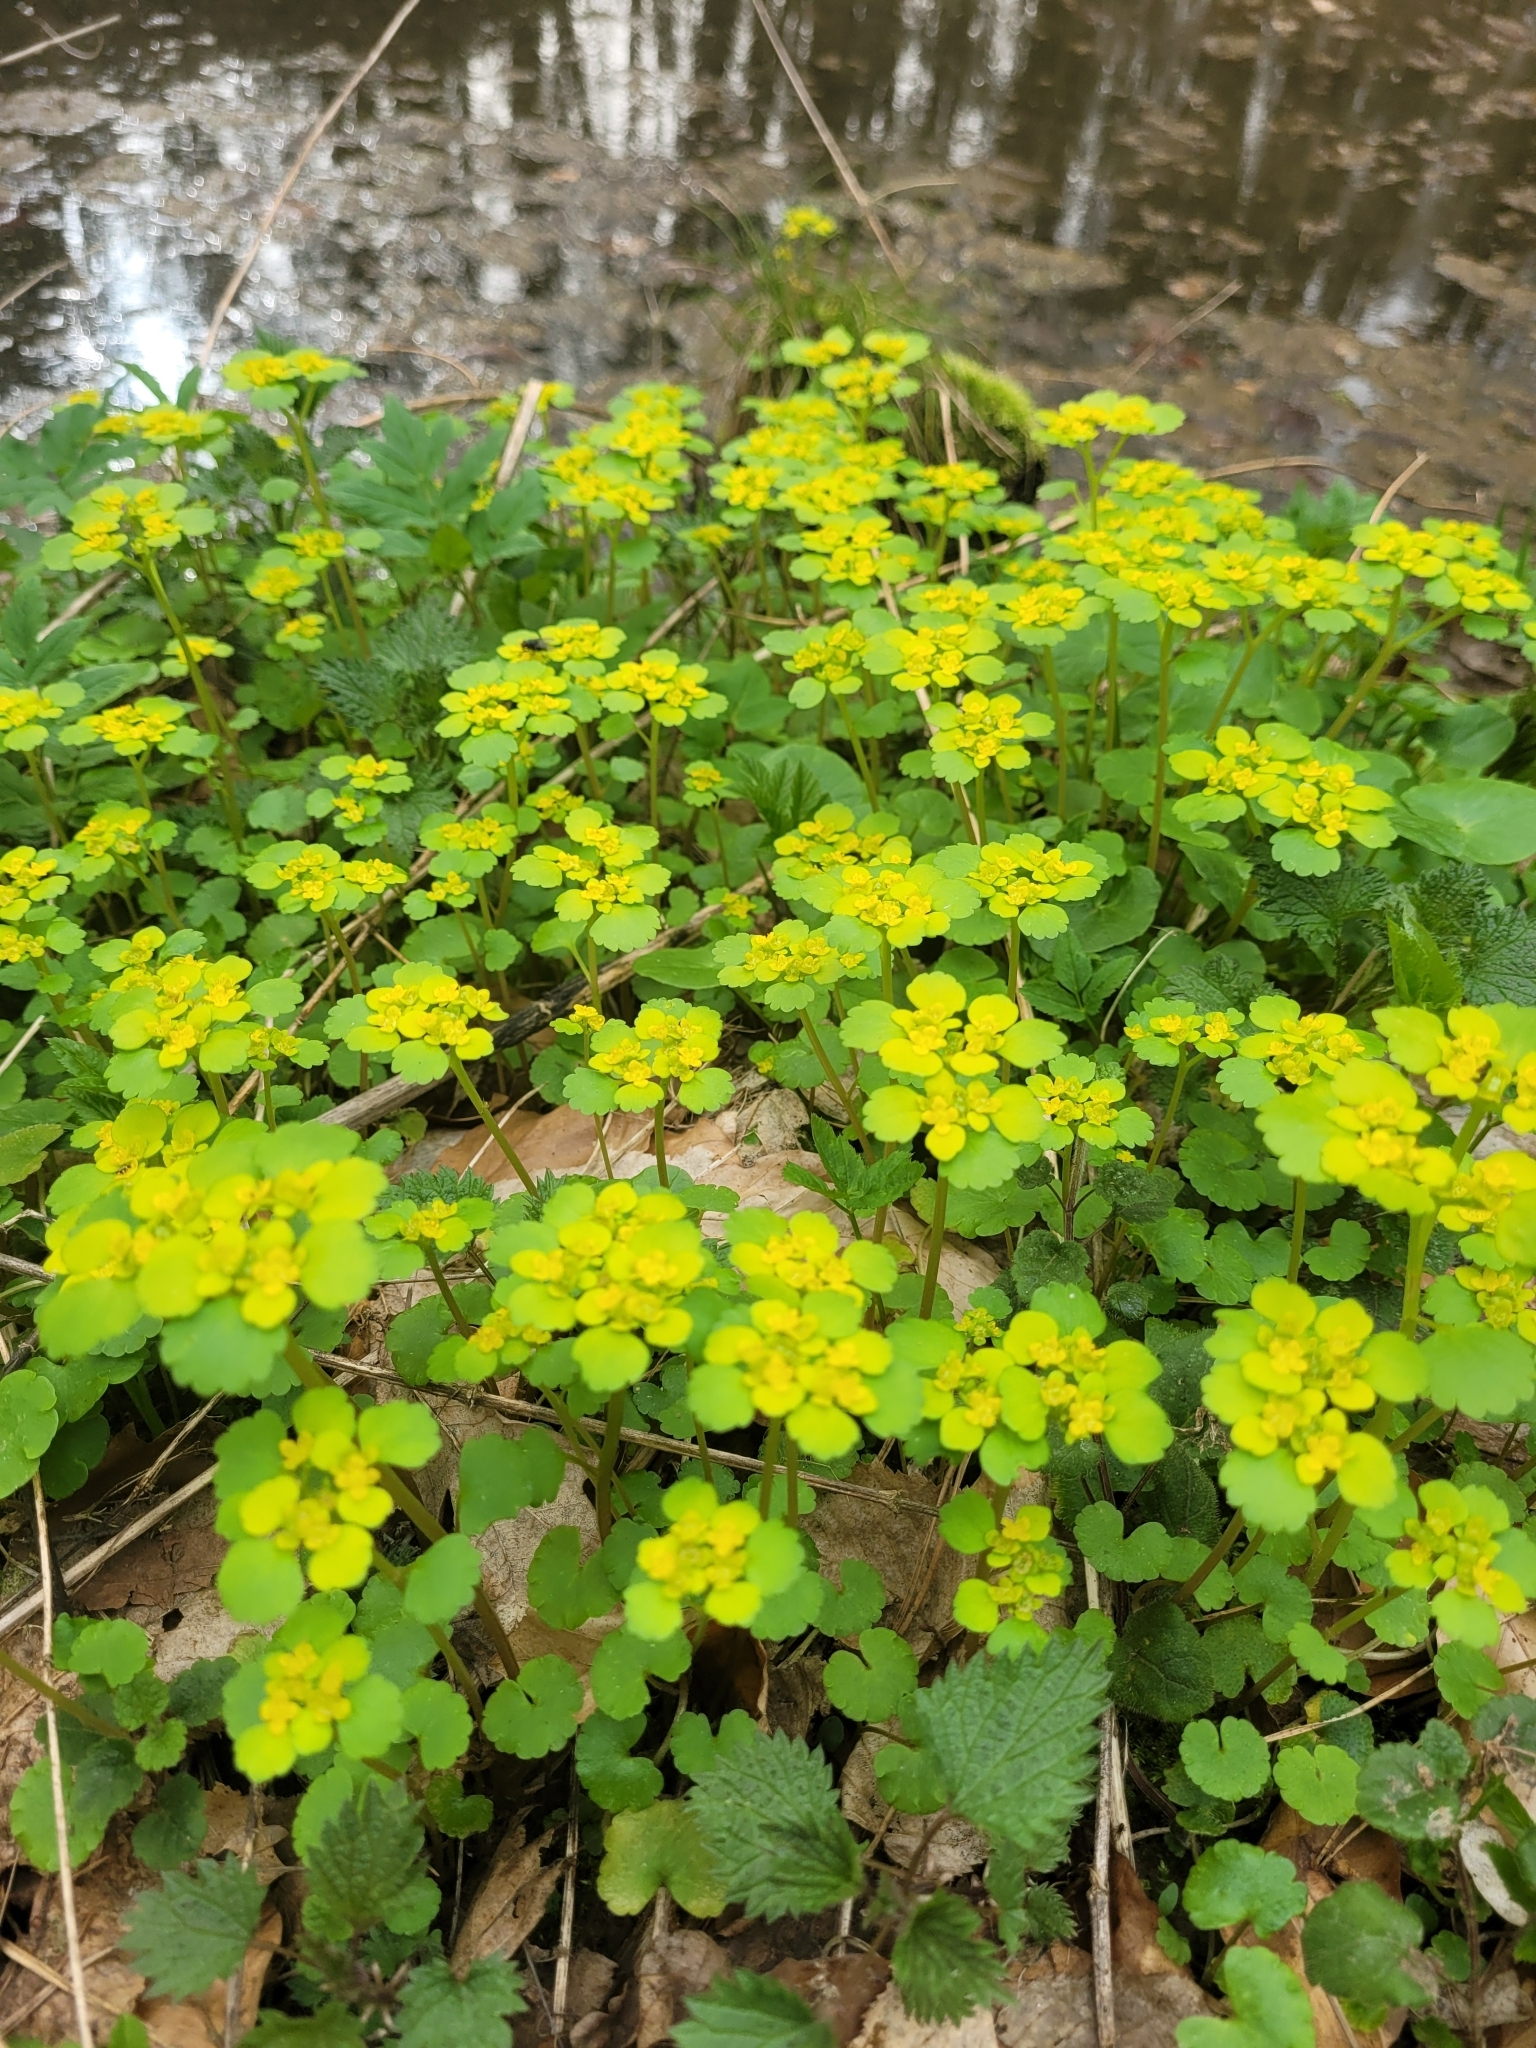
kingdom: Plantae
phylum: Tracheophyta
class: Magnoliopsida
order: Saxifragales
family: Saxifragaceae
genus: Chrysosplenium
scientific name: Chrysosplenium alternifolium
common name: Alternate-leaved golden-saxifrage
